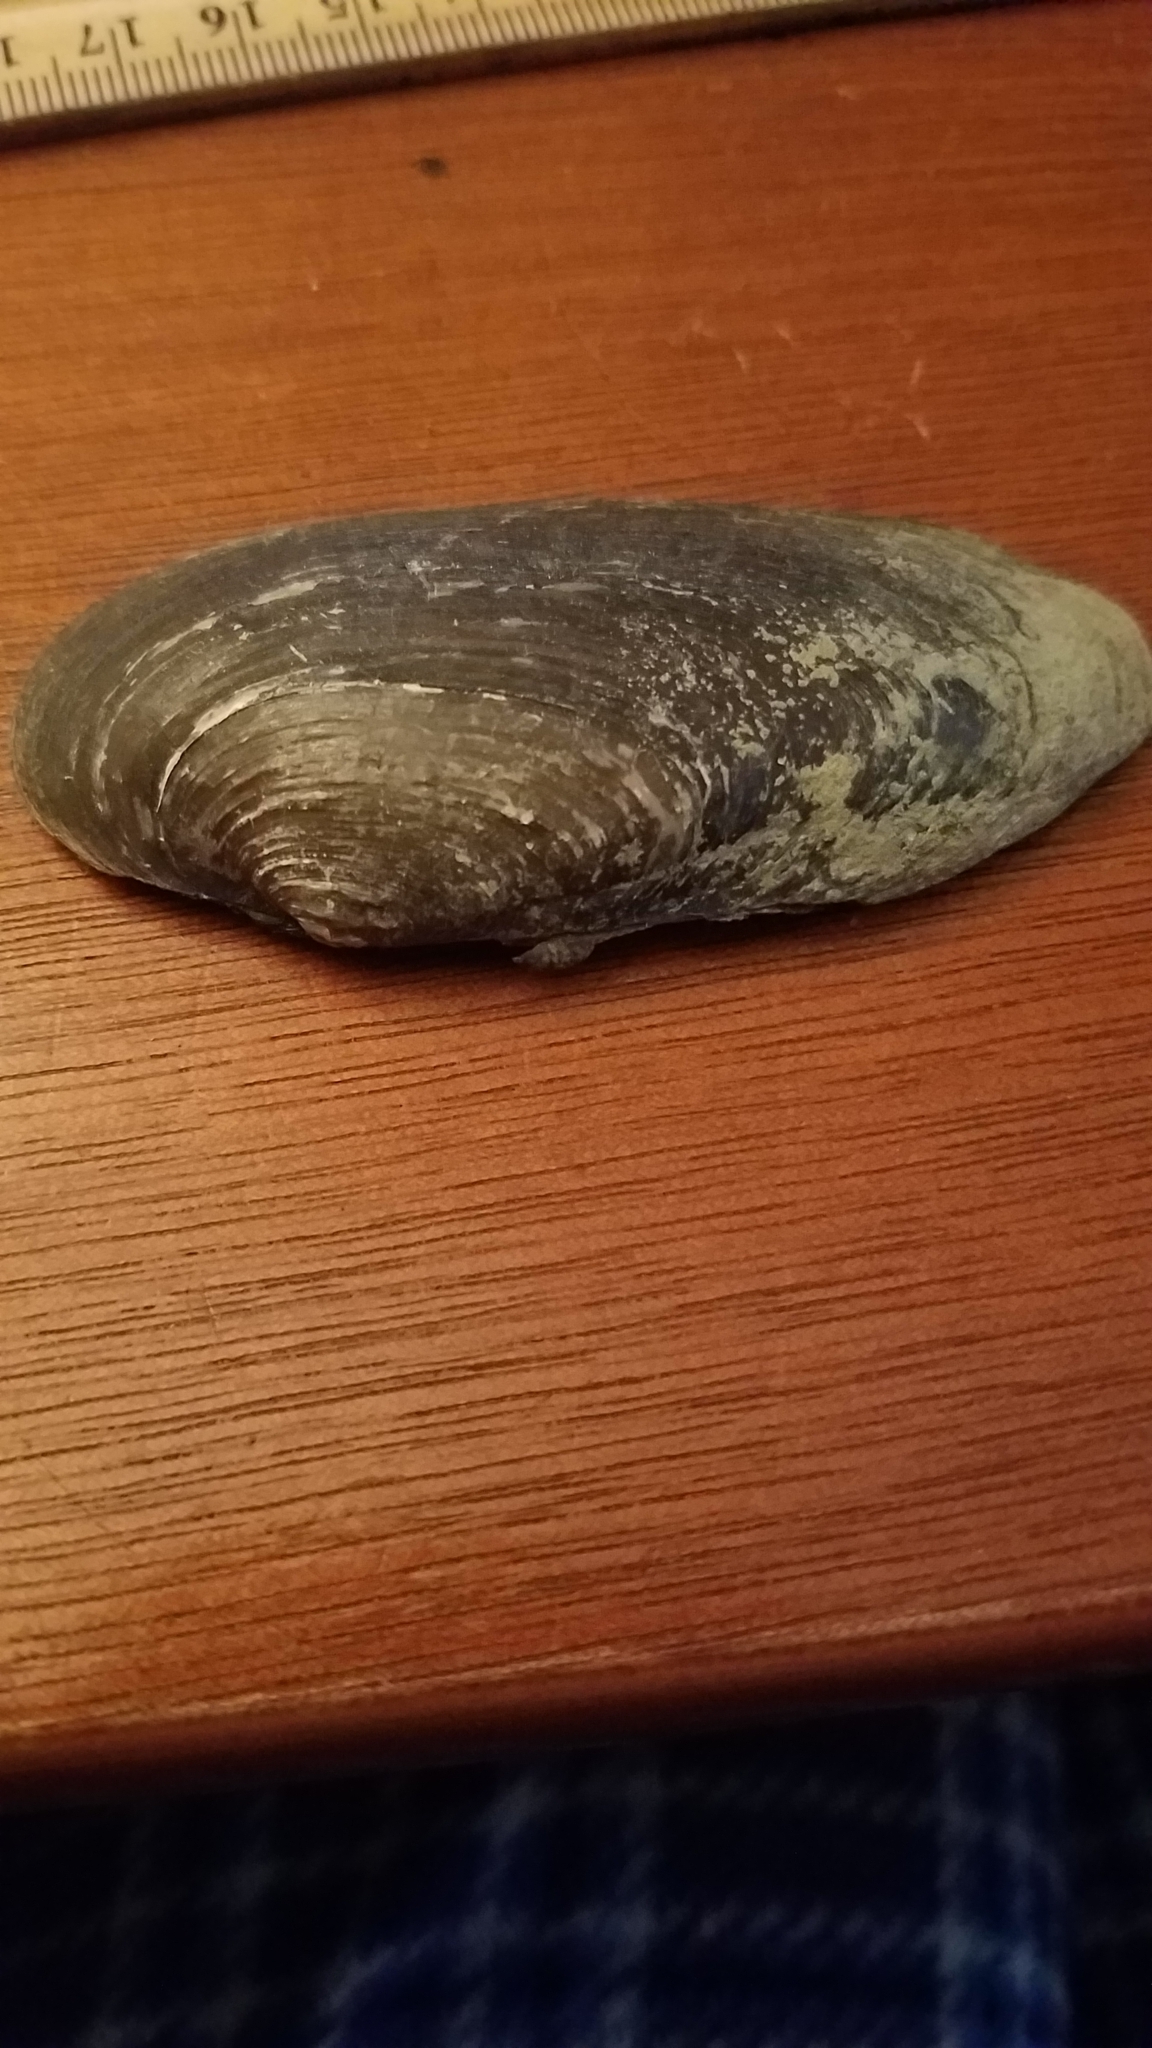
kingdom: Animalia
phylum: Mollusca
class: Bivalvia
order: Unionida
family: Unionidae
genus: Eurynia
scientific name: Eurynia dilatata
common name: Spike
